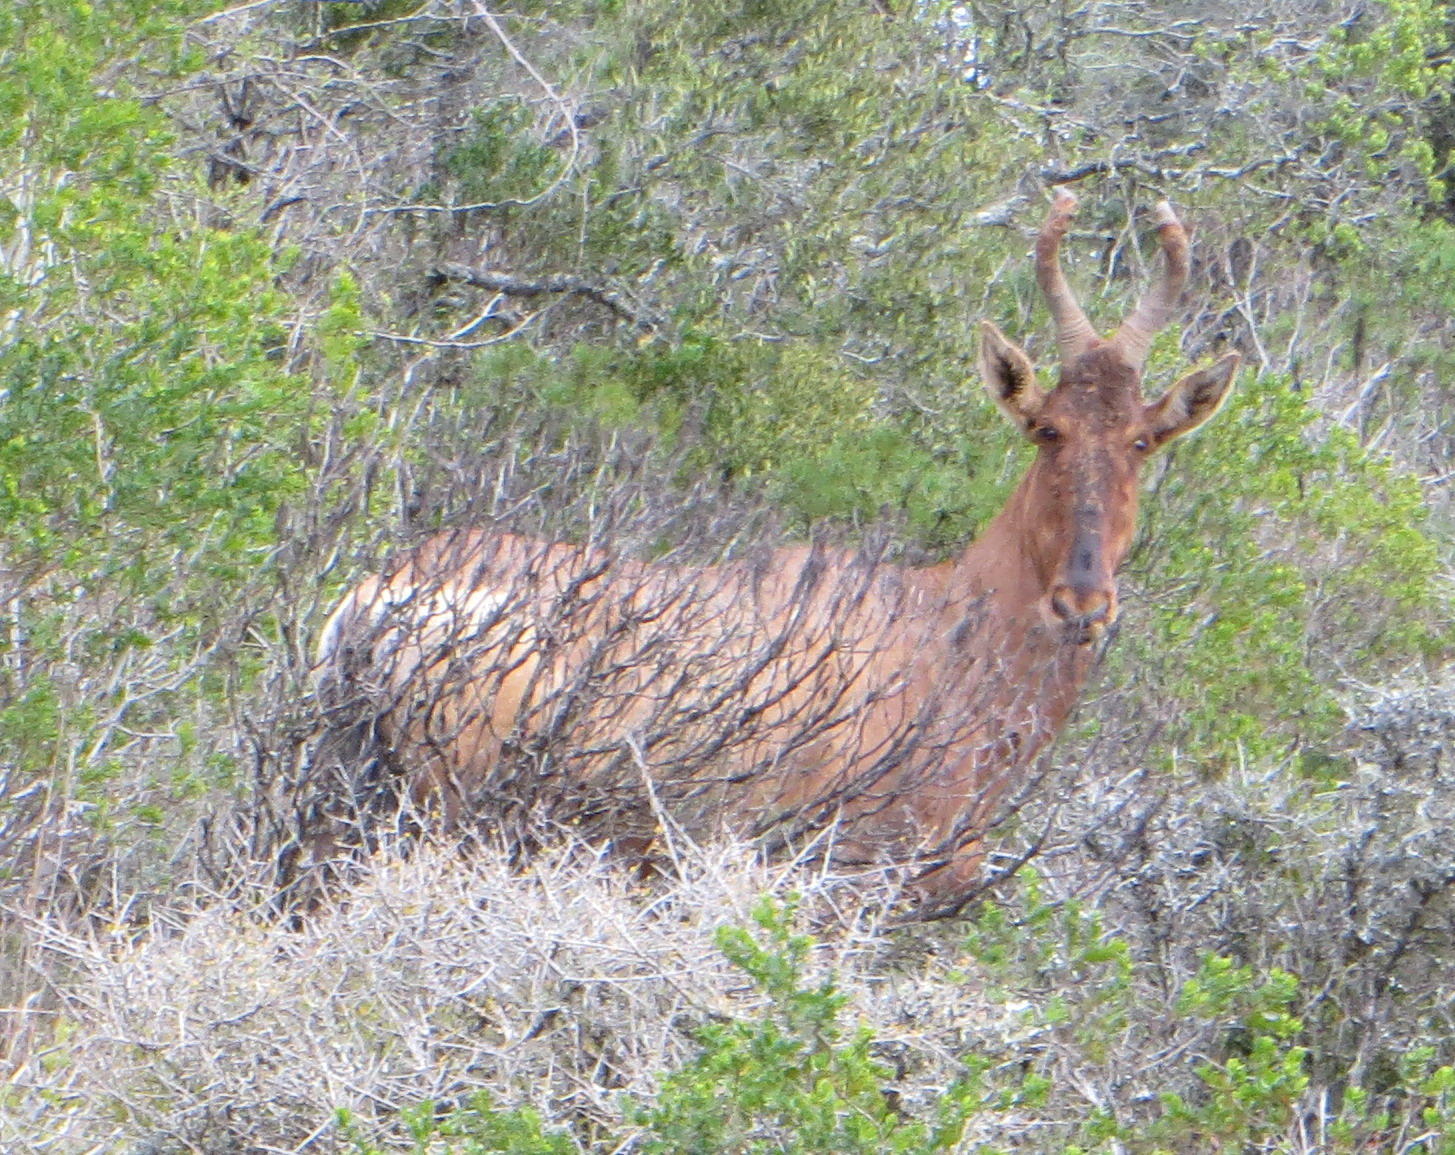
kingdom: Animalia
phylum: Chordata
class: Mammalia
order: Artiodactyla
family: Bovidae
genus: Alcelaphus
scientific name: Alcelaphus caama
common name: Red hartebeest
